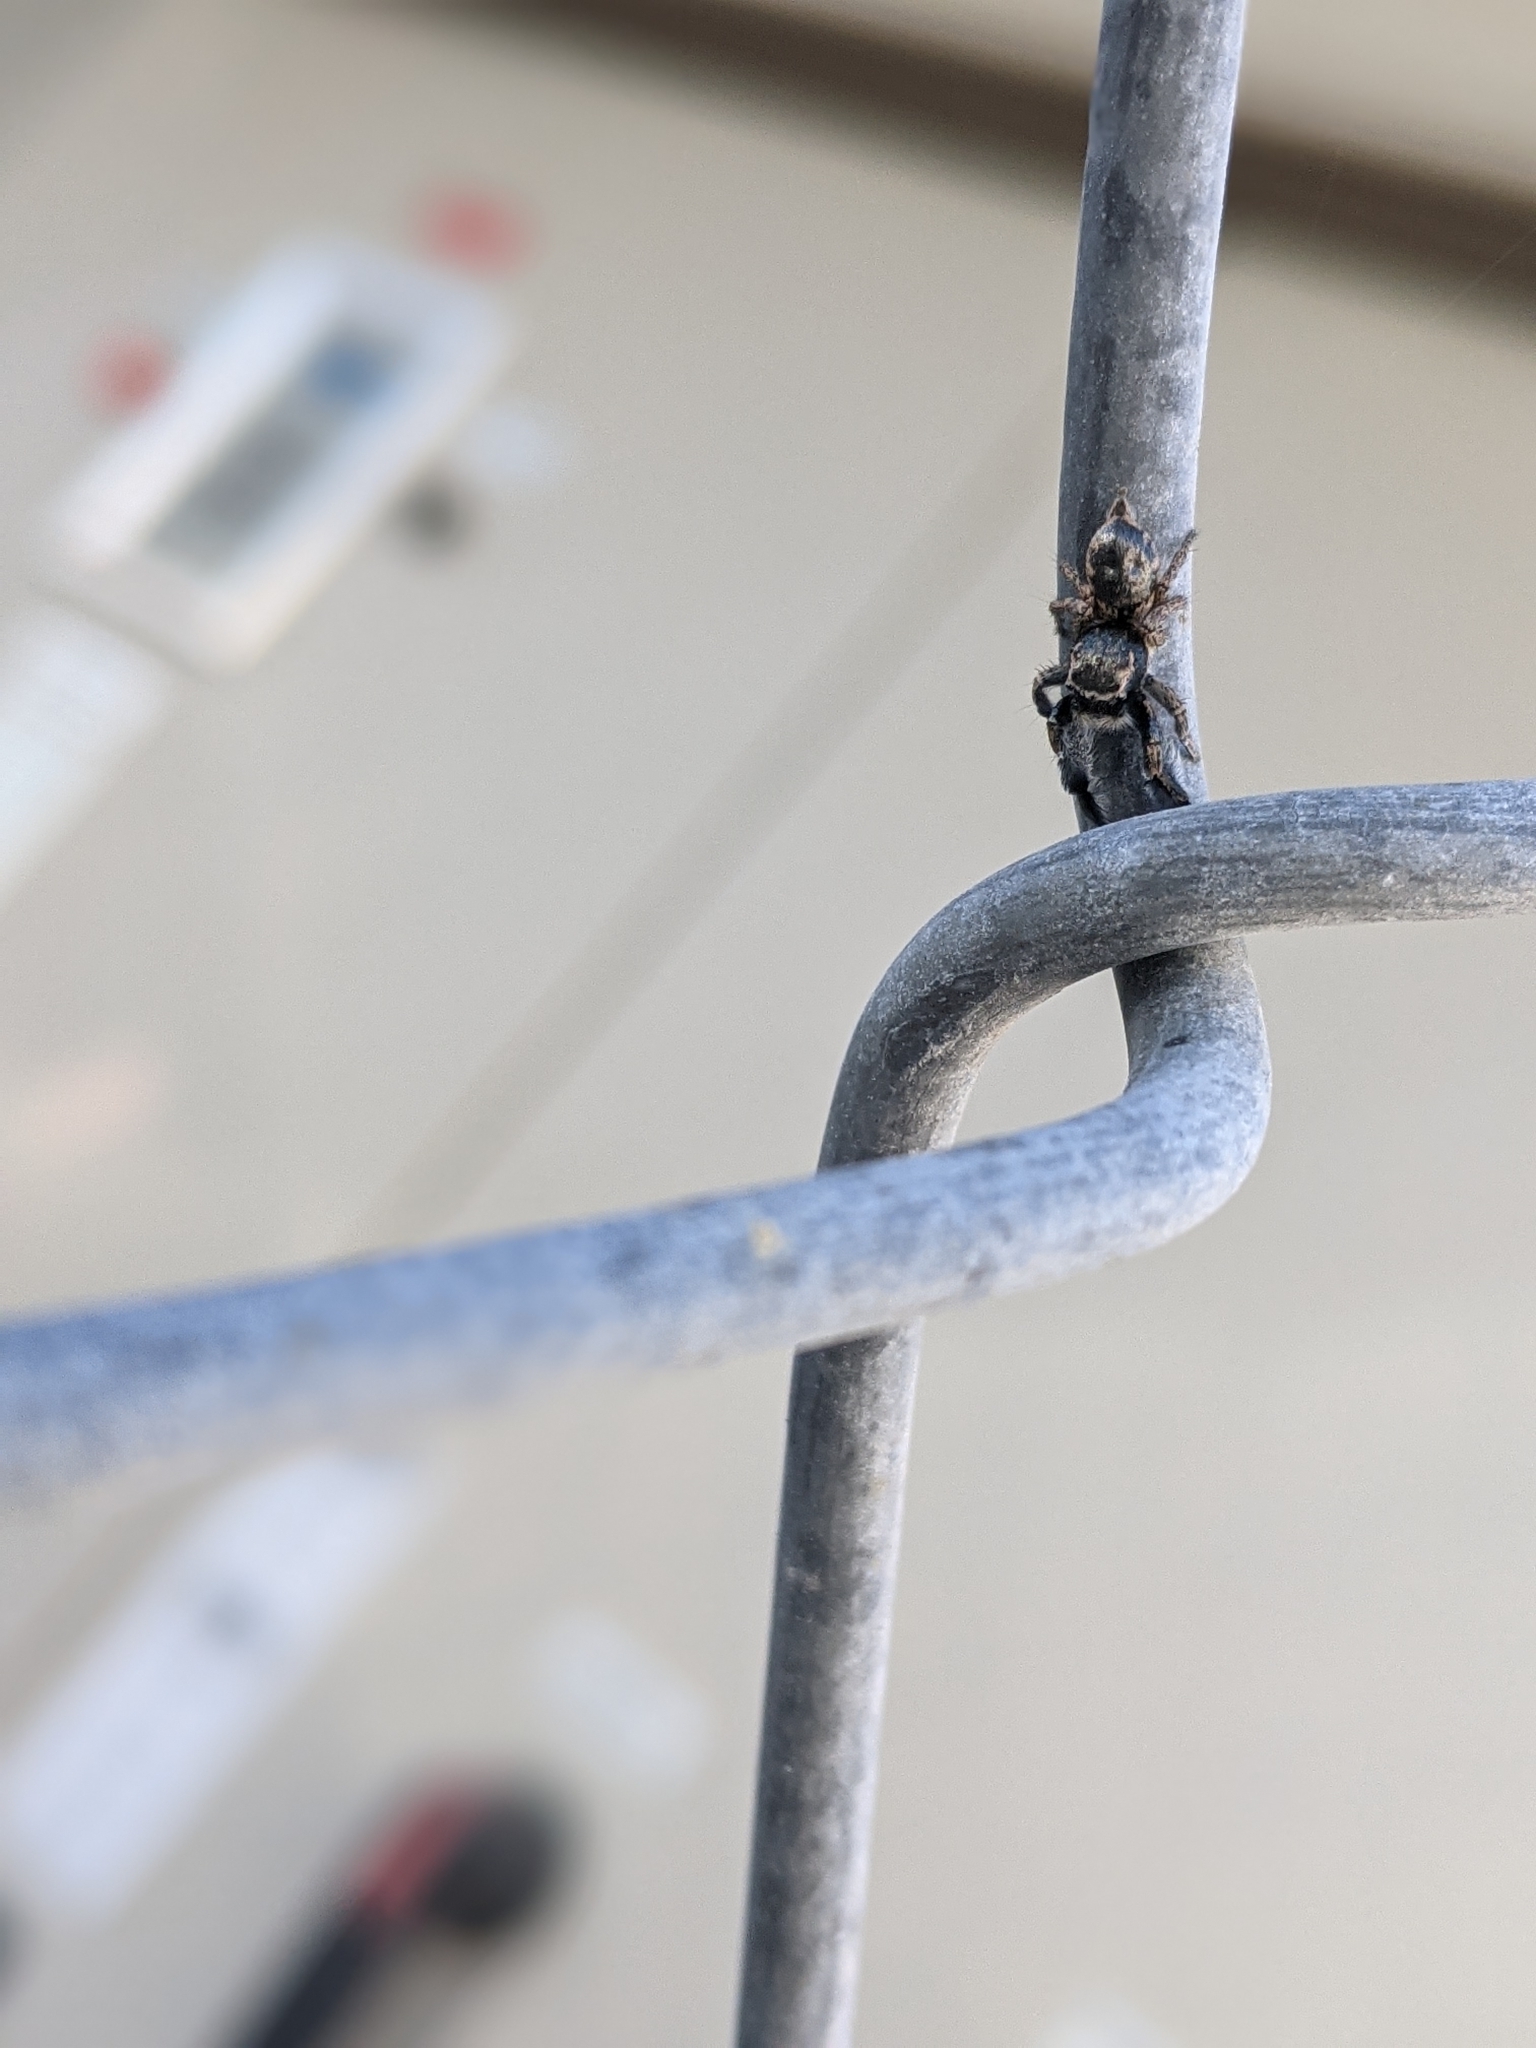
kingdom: Animalia
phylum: Arthropoda
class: Arachnida
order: Araneae
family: Salticidae
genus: Habronattus
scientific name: Habronattus hirsutus
